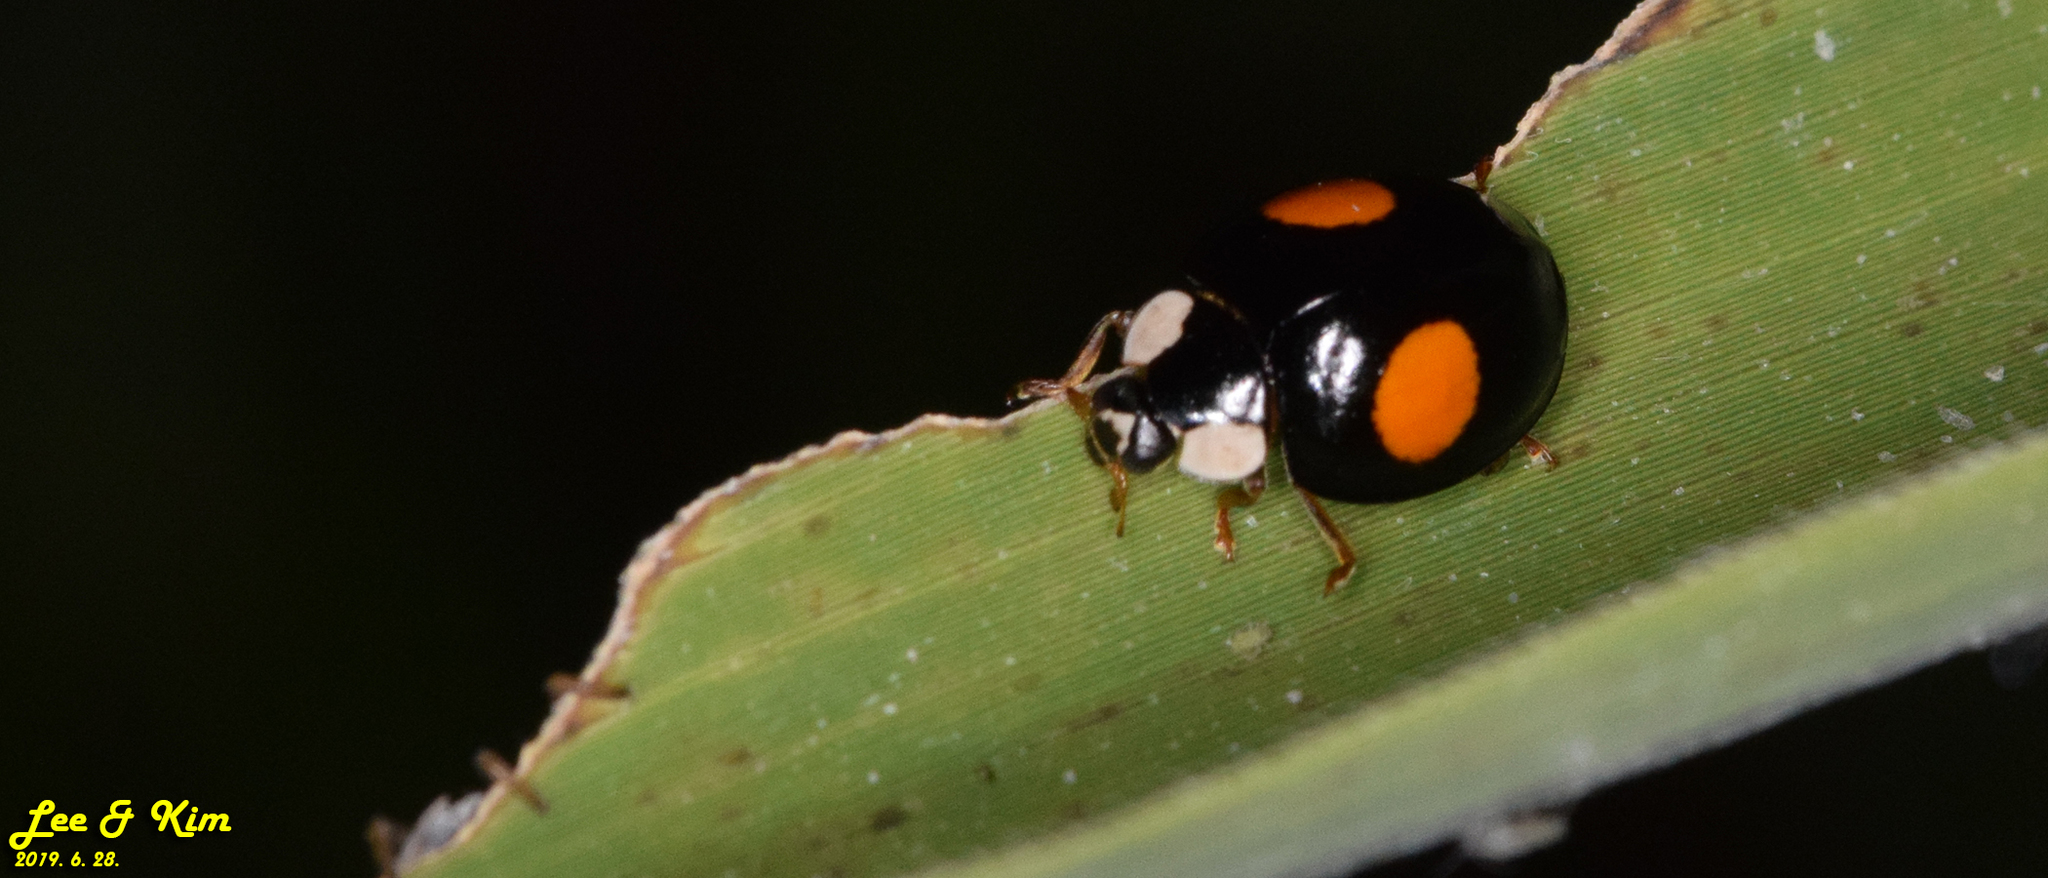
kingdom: Animalia
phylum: Arthropoda
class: Insecta
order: Coleoptera
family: Coccinellidae
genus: Harmonia
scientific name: Harmonia axyridis
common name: Harlequin ladybird
